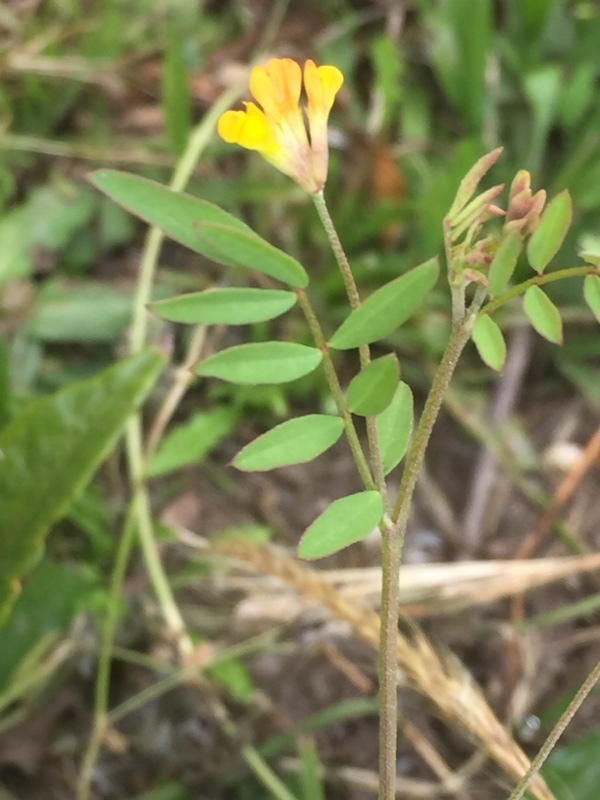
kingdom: Plantae
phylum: Tracheophyta
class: Magnoliopsida
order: Fabales
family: Fabaceae
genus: Ornithopus
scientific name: Ornithopus compressus
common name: Yellow serradella
